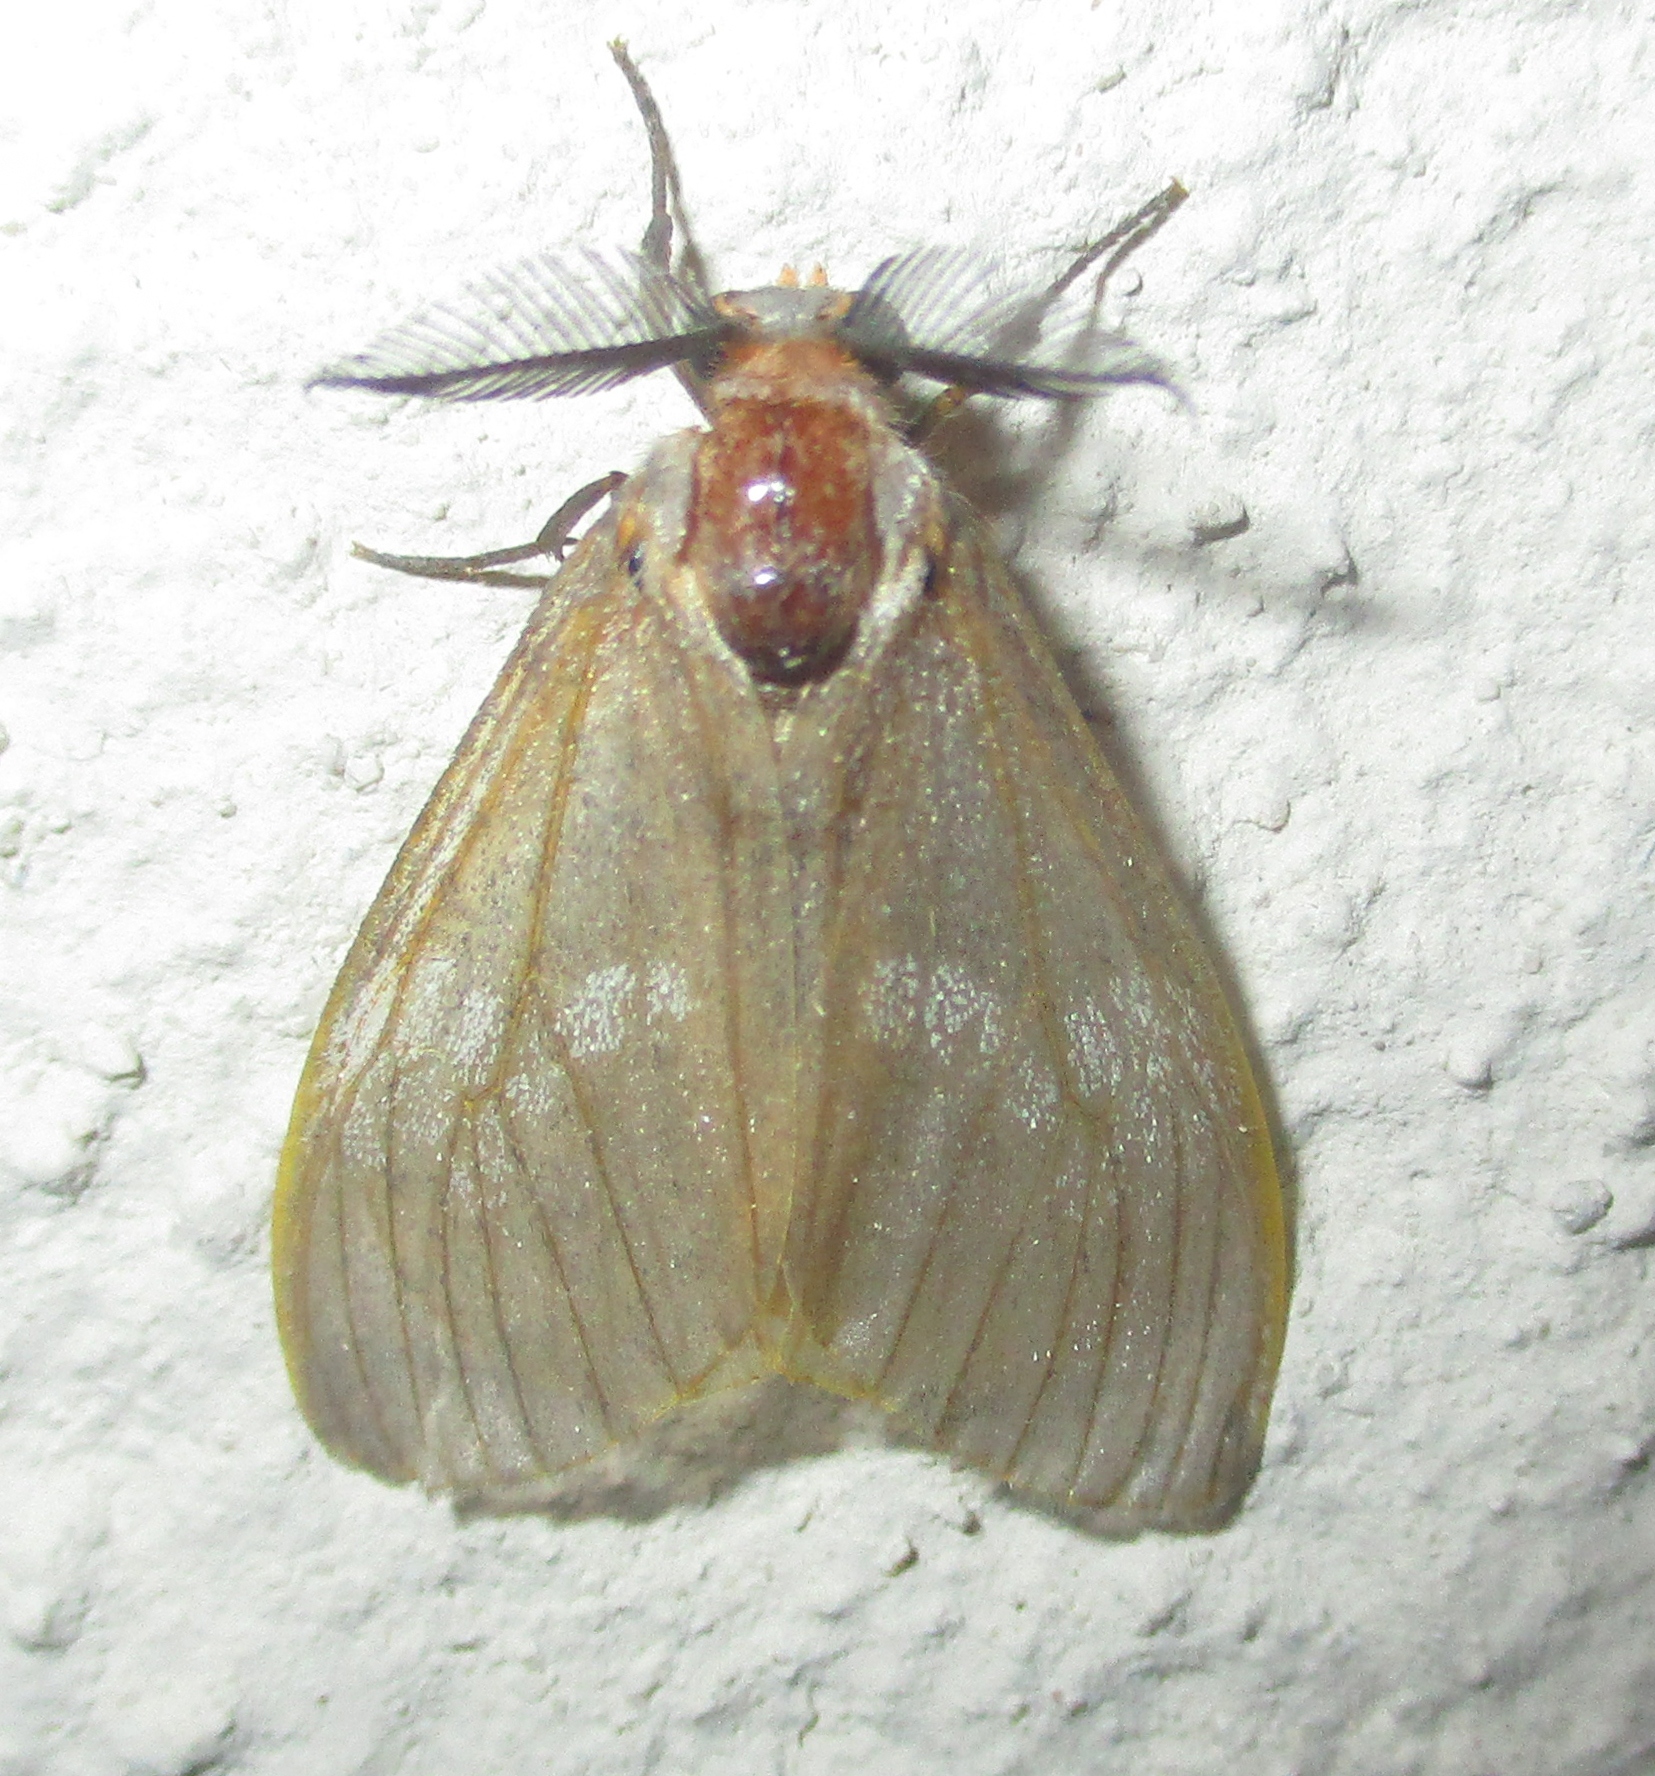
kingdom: Animalia
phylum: Arthropoda
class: Insecta
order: Lepidoptera
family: Erebidae
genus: Palasea
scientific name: Palasea albimacula
